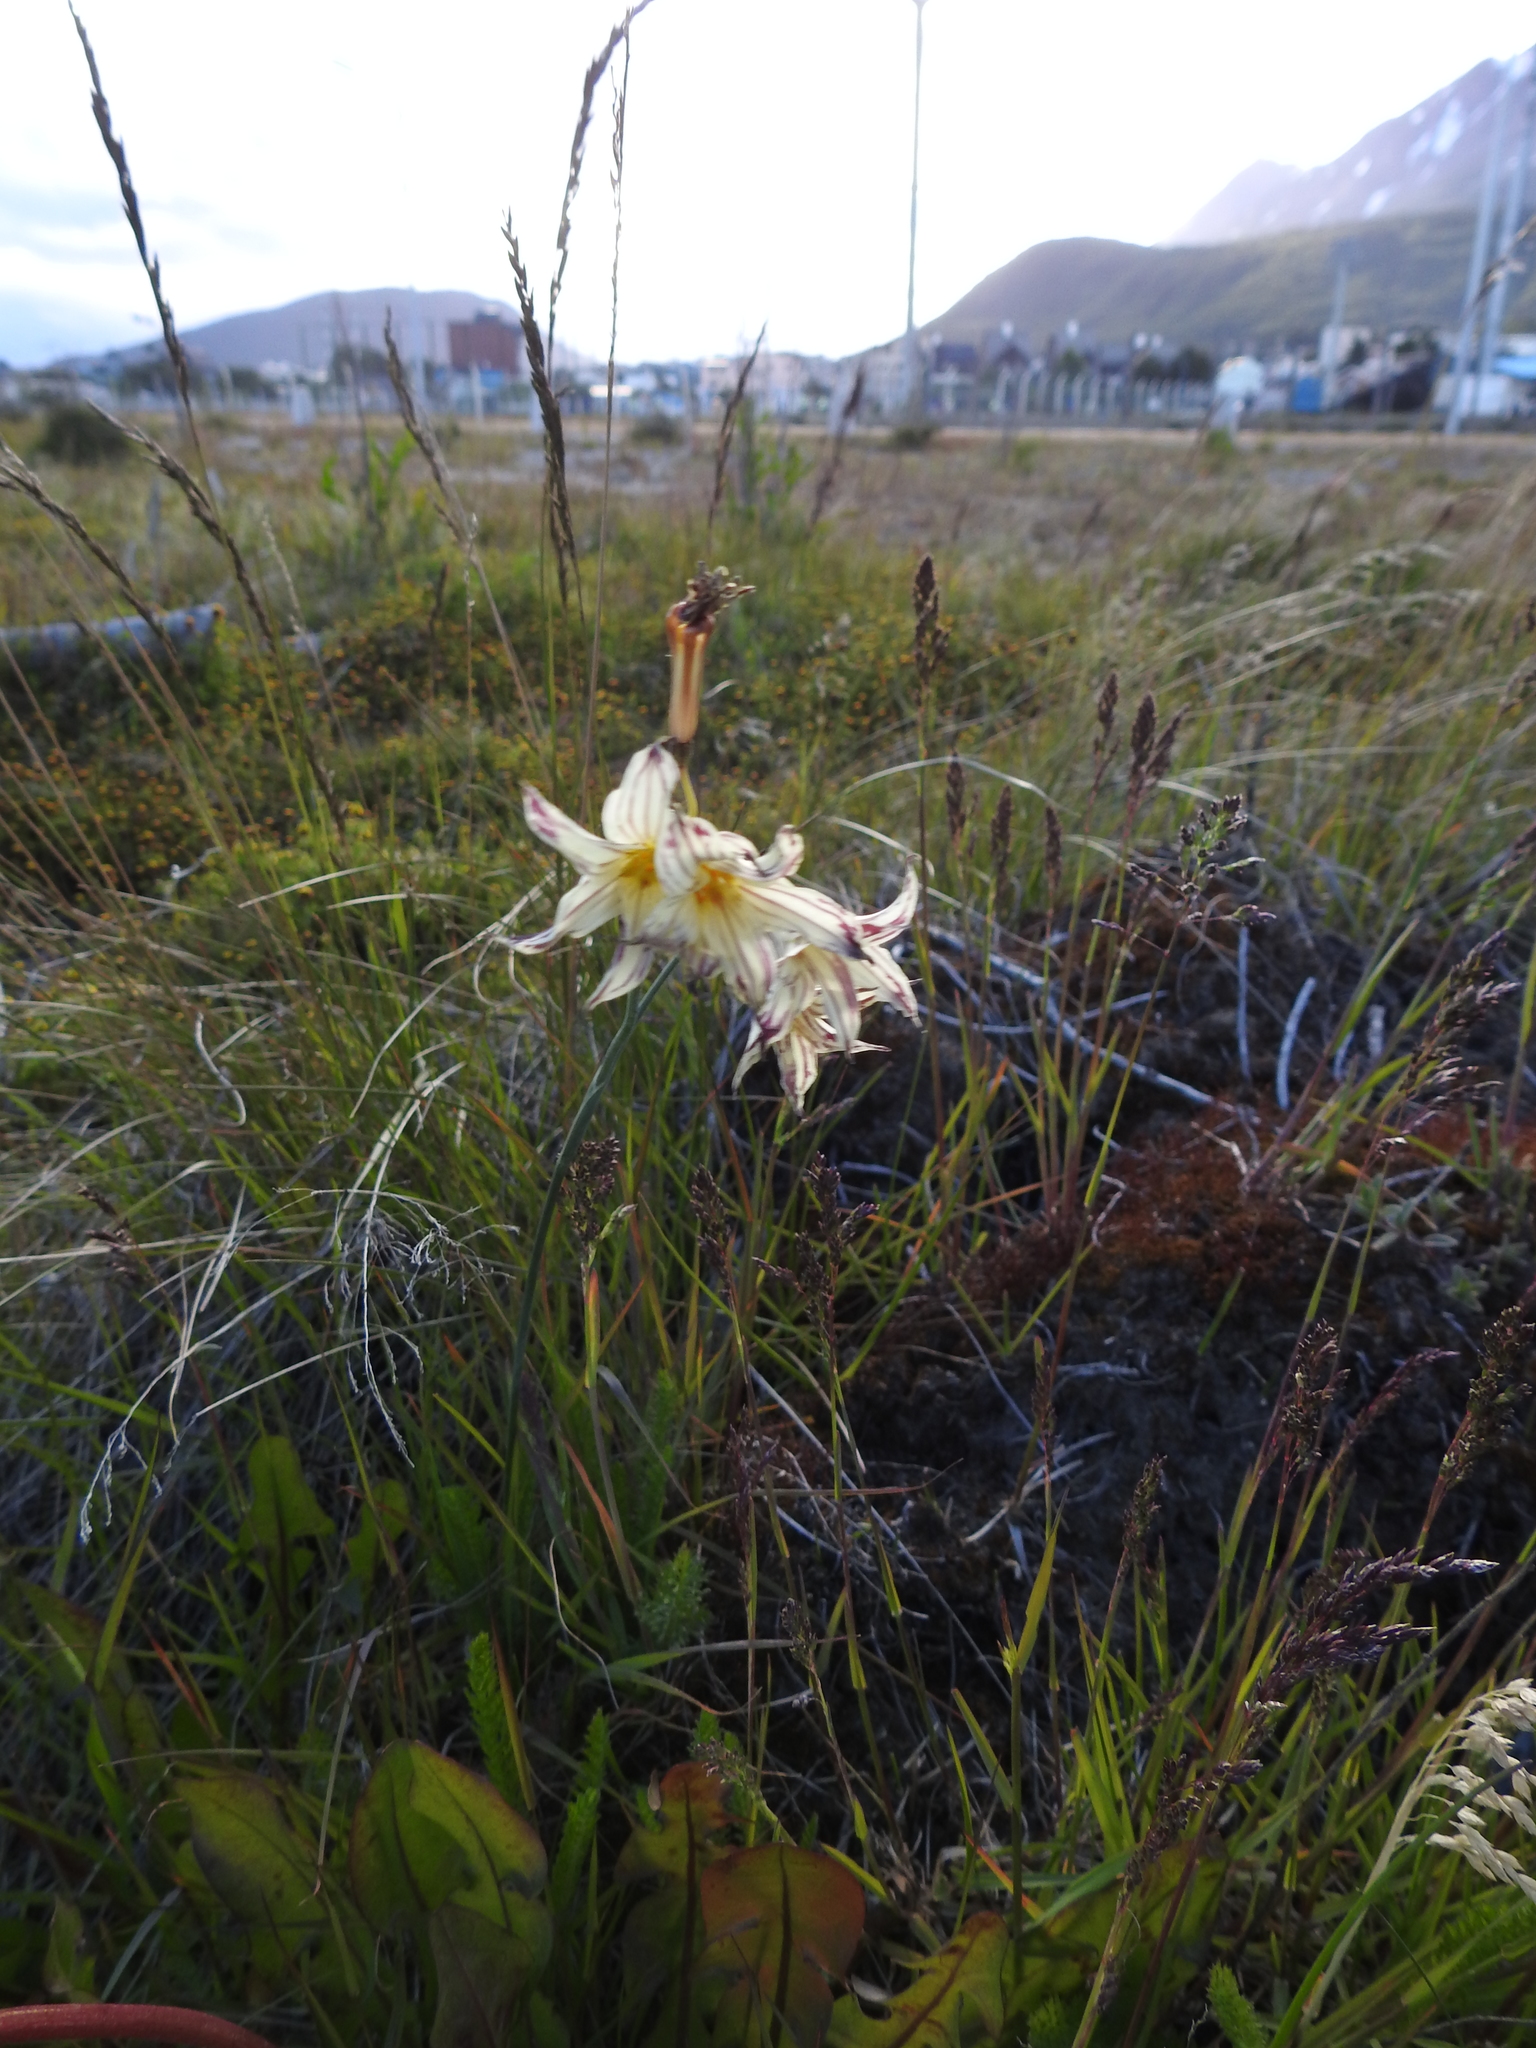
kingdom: Plantae
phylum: Tracheophyta
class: Liliopsida
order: Asparagales
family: Iridaceae
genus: Olsynium
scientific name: Olsynium biflorum
